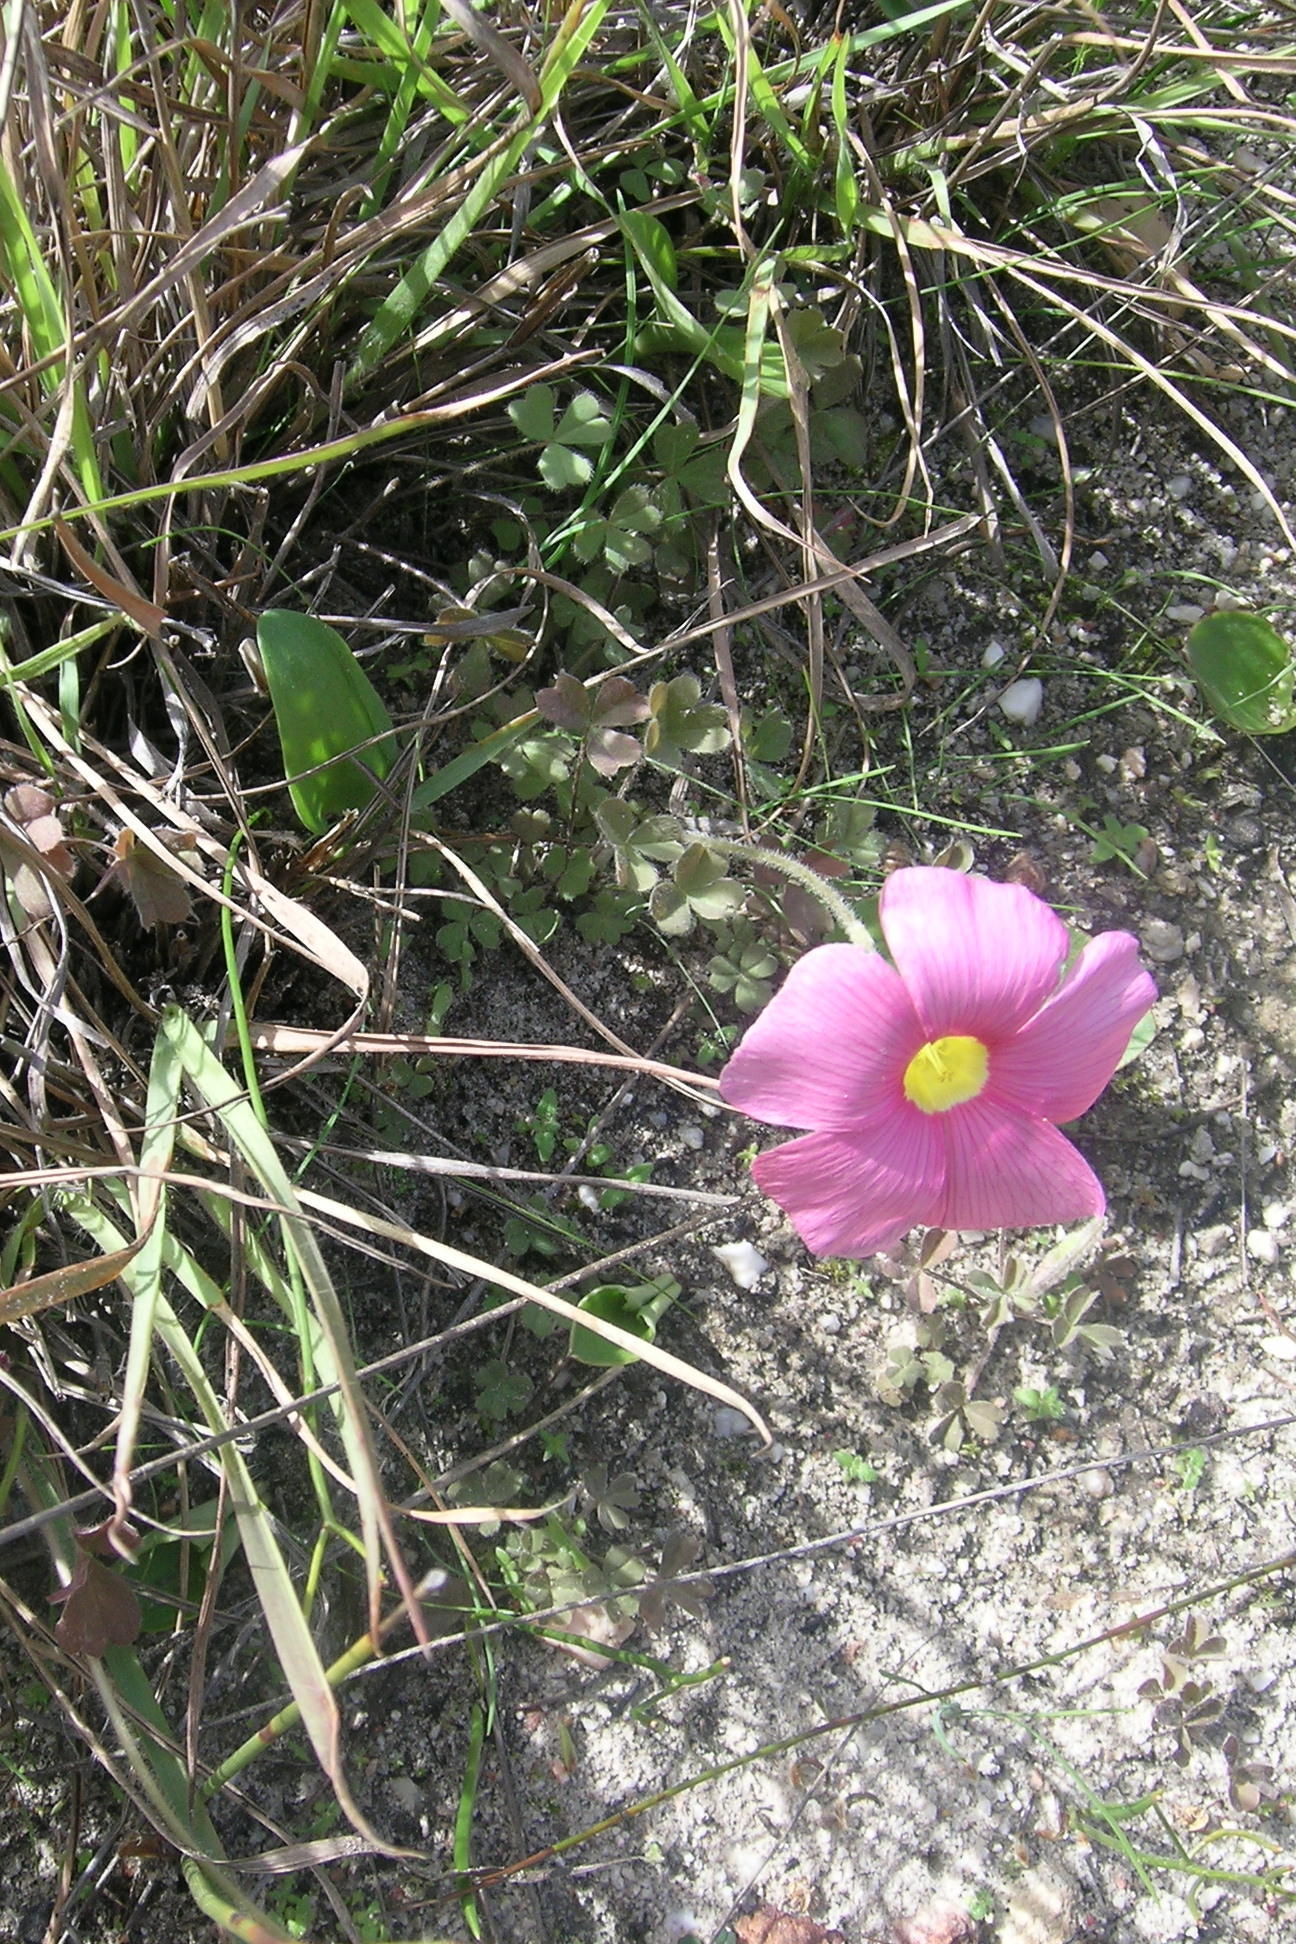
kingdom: Plantae
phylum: Tracheophyta
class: Magnoliopsida
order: Oxalidales
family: Oxalidaceae
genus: Oxalis
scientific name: Oxalis obtusa
